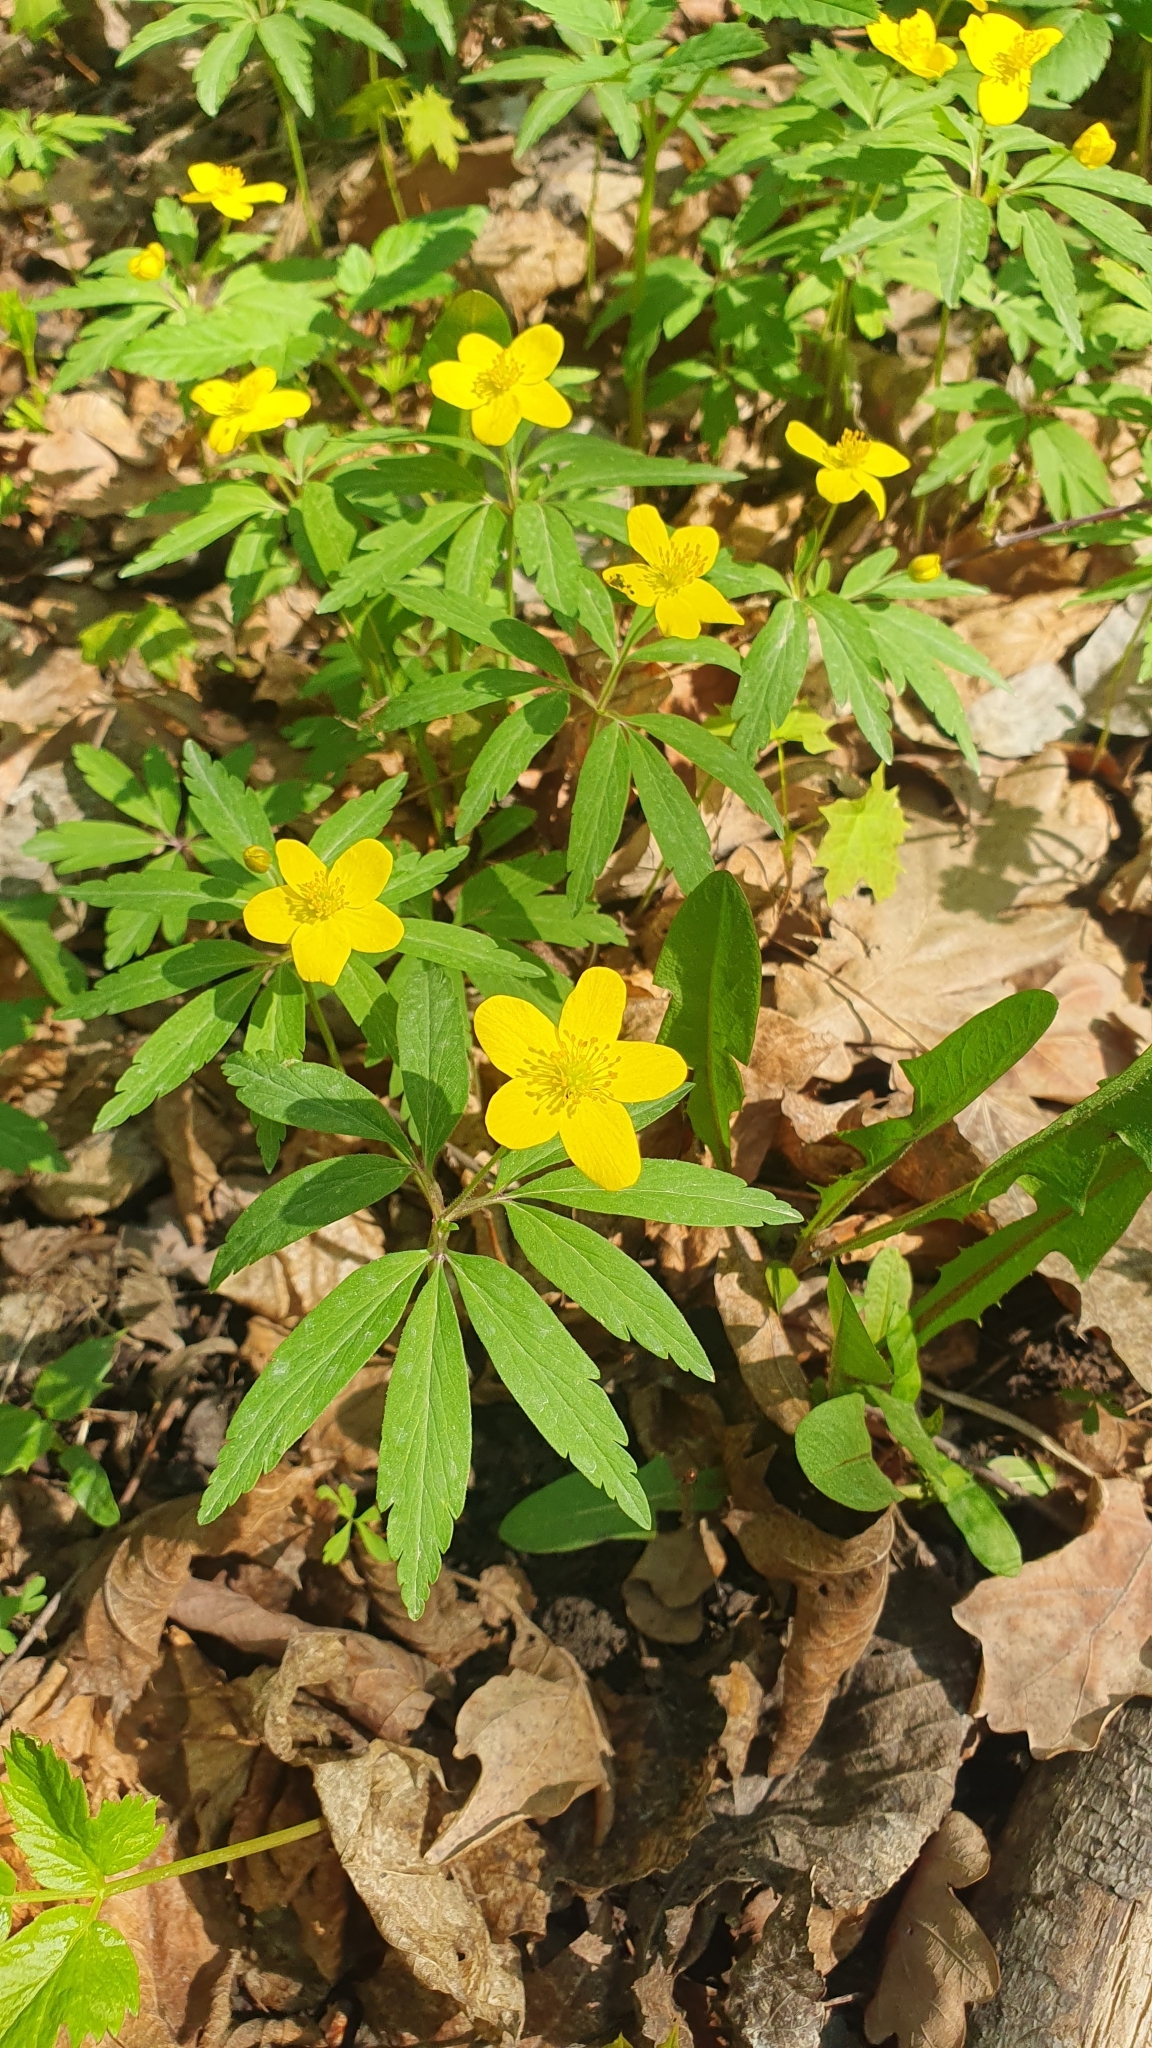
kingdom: Plantae
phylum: Tracheophyta
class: Magnoliopsida
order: Ranunculales
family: Ranunculaceae
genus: Anemone
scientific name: Anemone ranunculoides
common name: Yellow anemone
